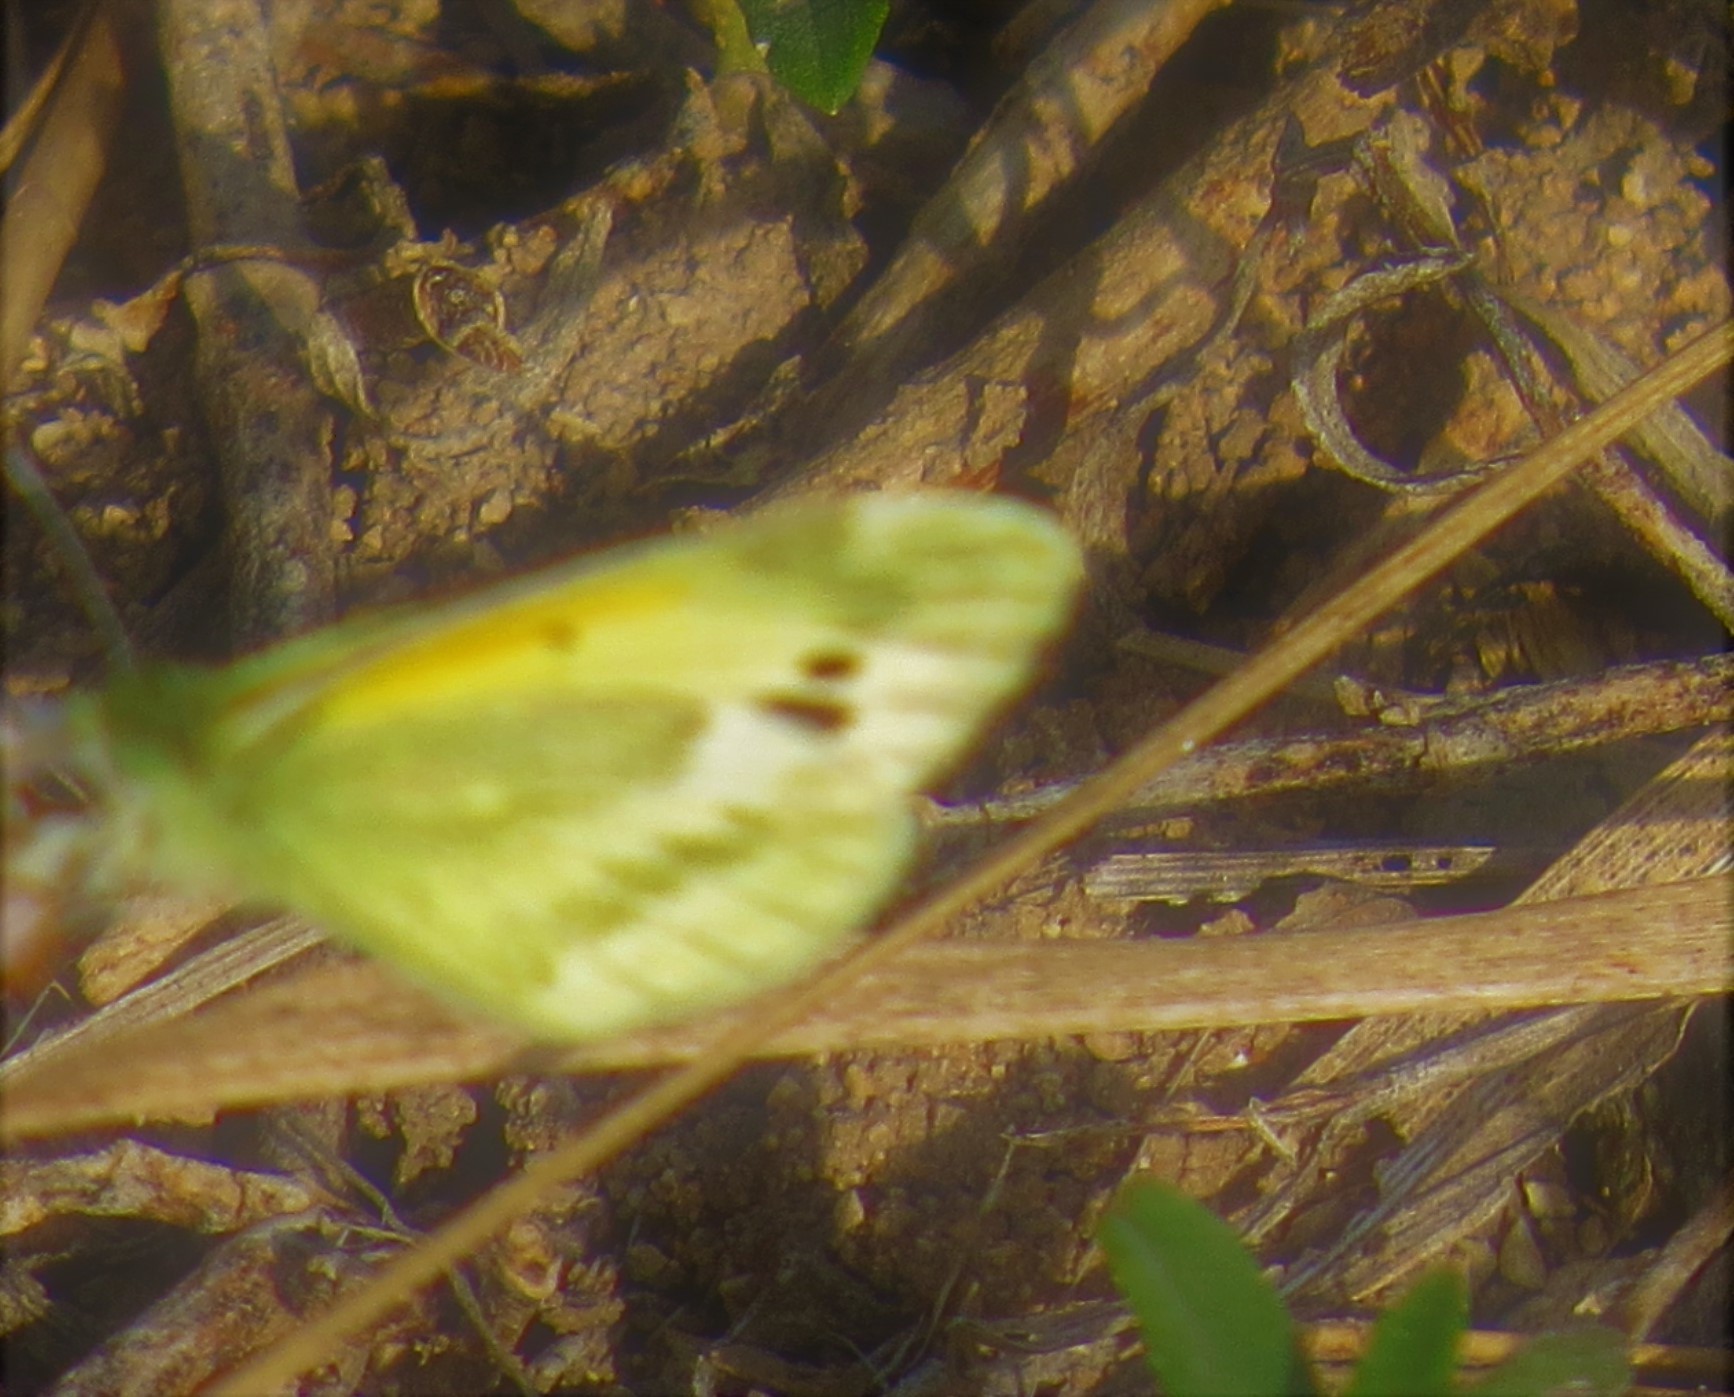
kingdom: Animalia
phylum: Arthropoda
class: Insecta
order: Lepidoptera
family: Pieridae
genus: Nathalis
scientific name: Nathalis iole
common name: Dainty sulphur
